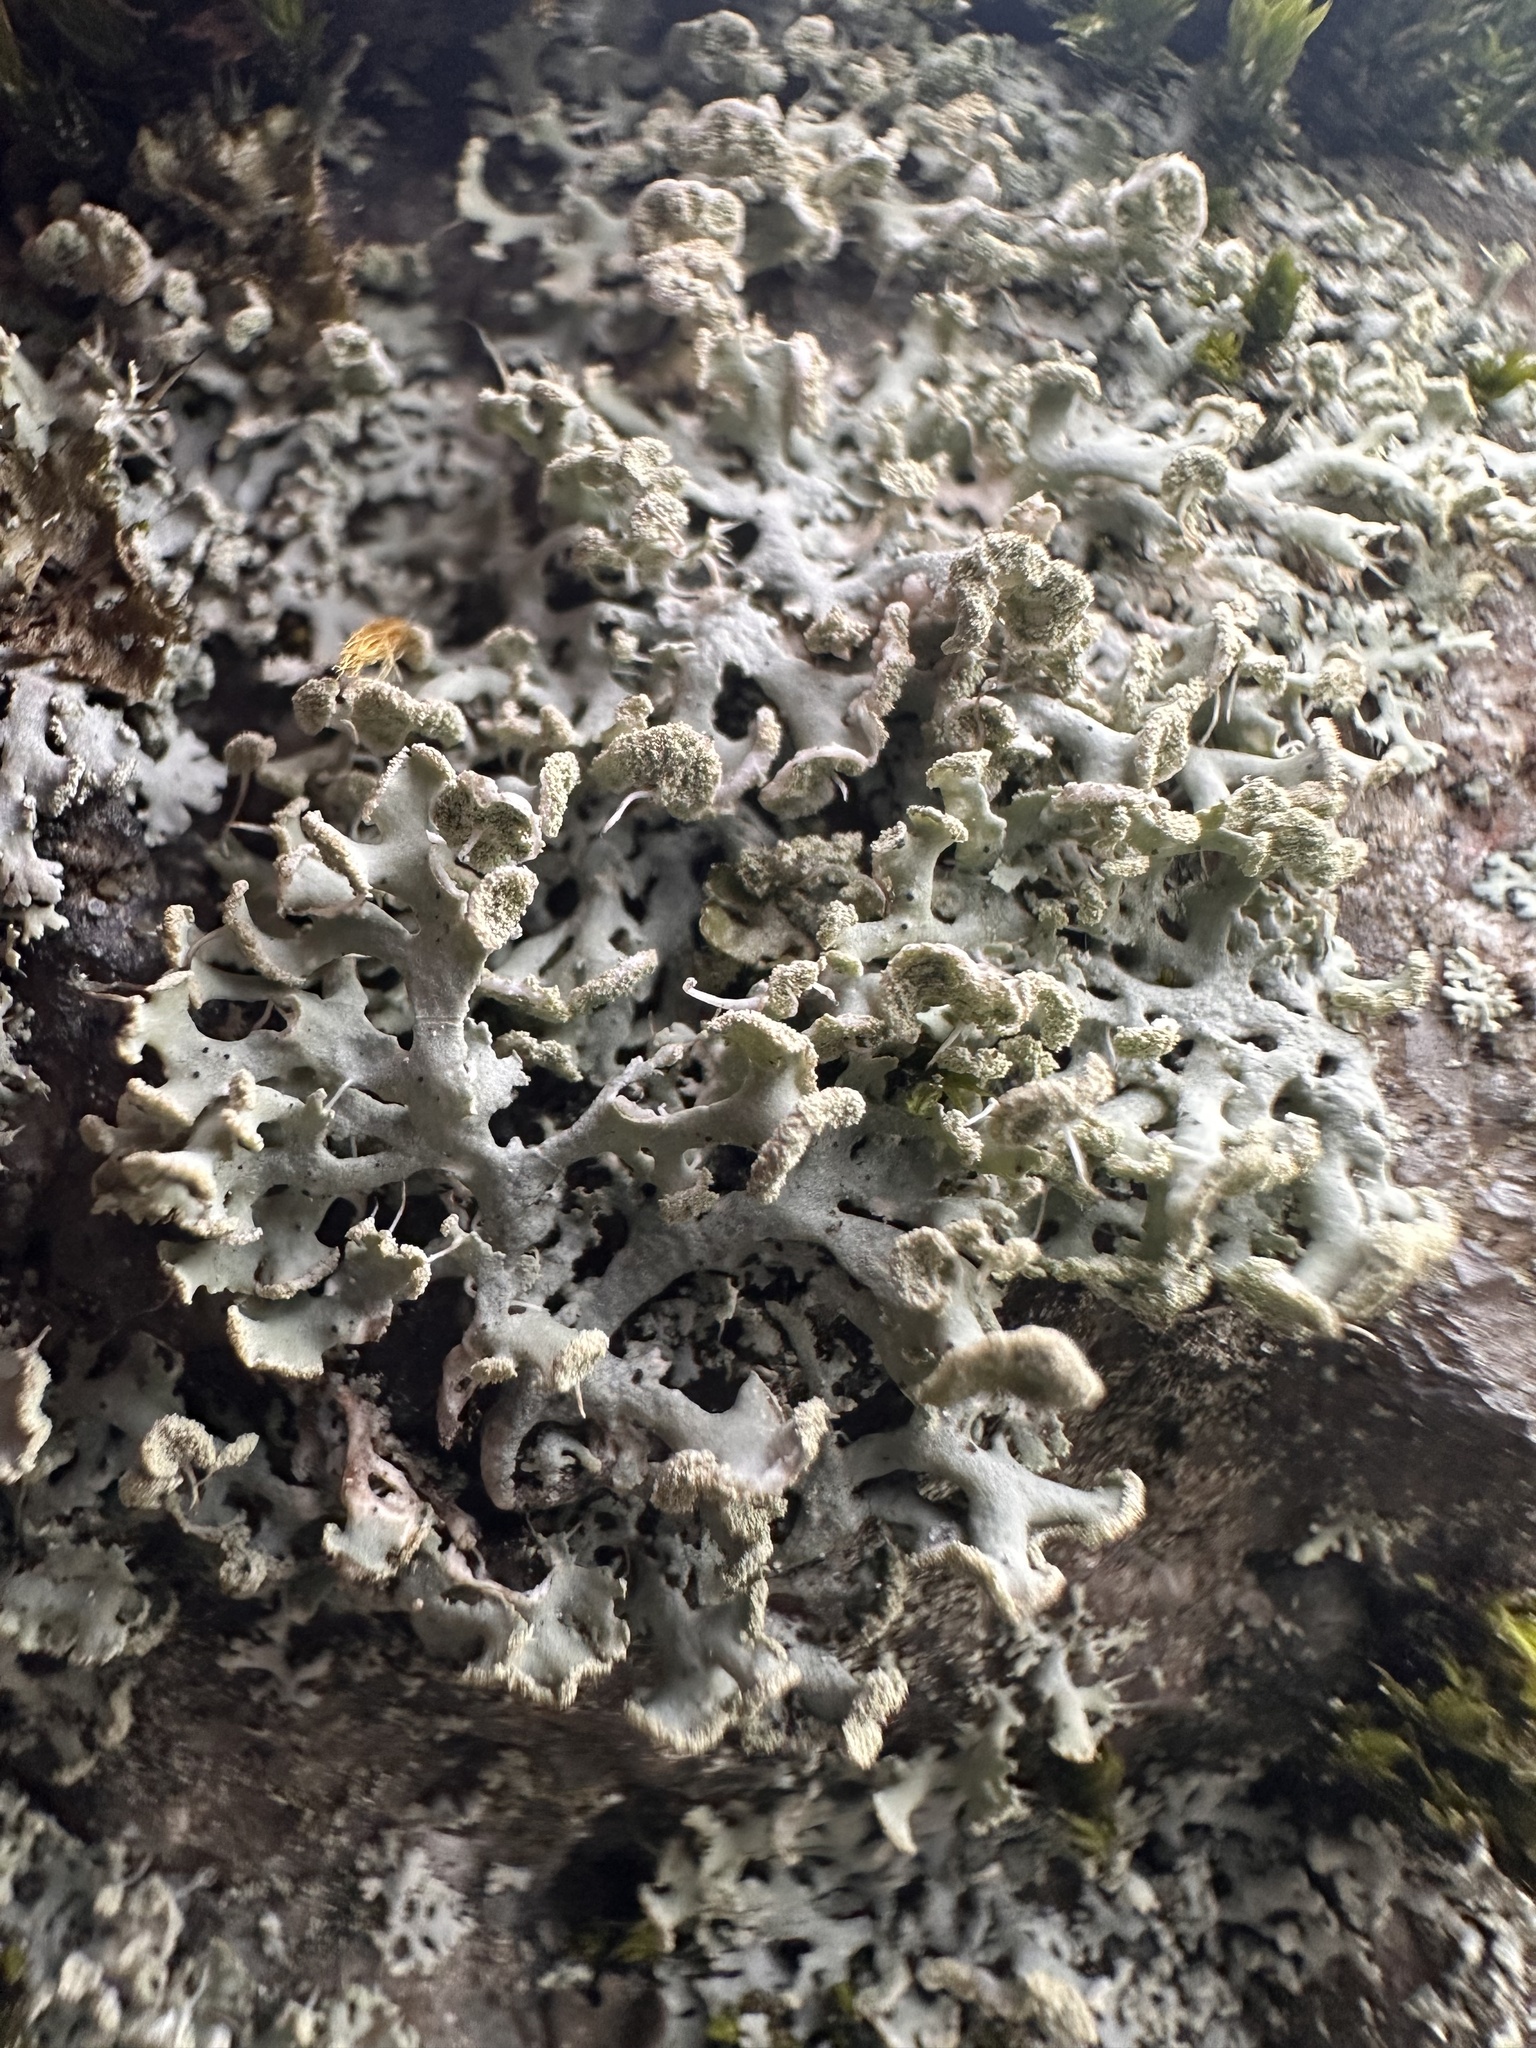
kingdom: Fungi
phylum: Ascomycota
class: Lecanoromycetes
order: Caliciales
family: Physciaceae
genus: Physcia
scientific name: Physcia tenella
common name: Fringed rosette lichen
